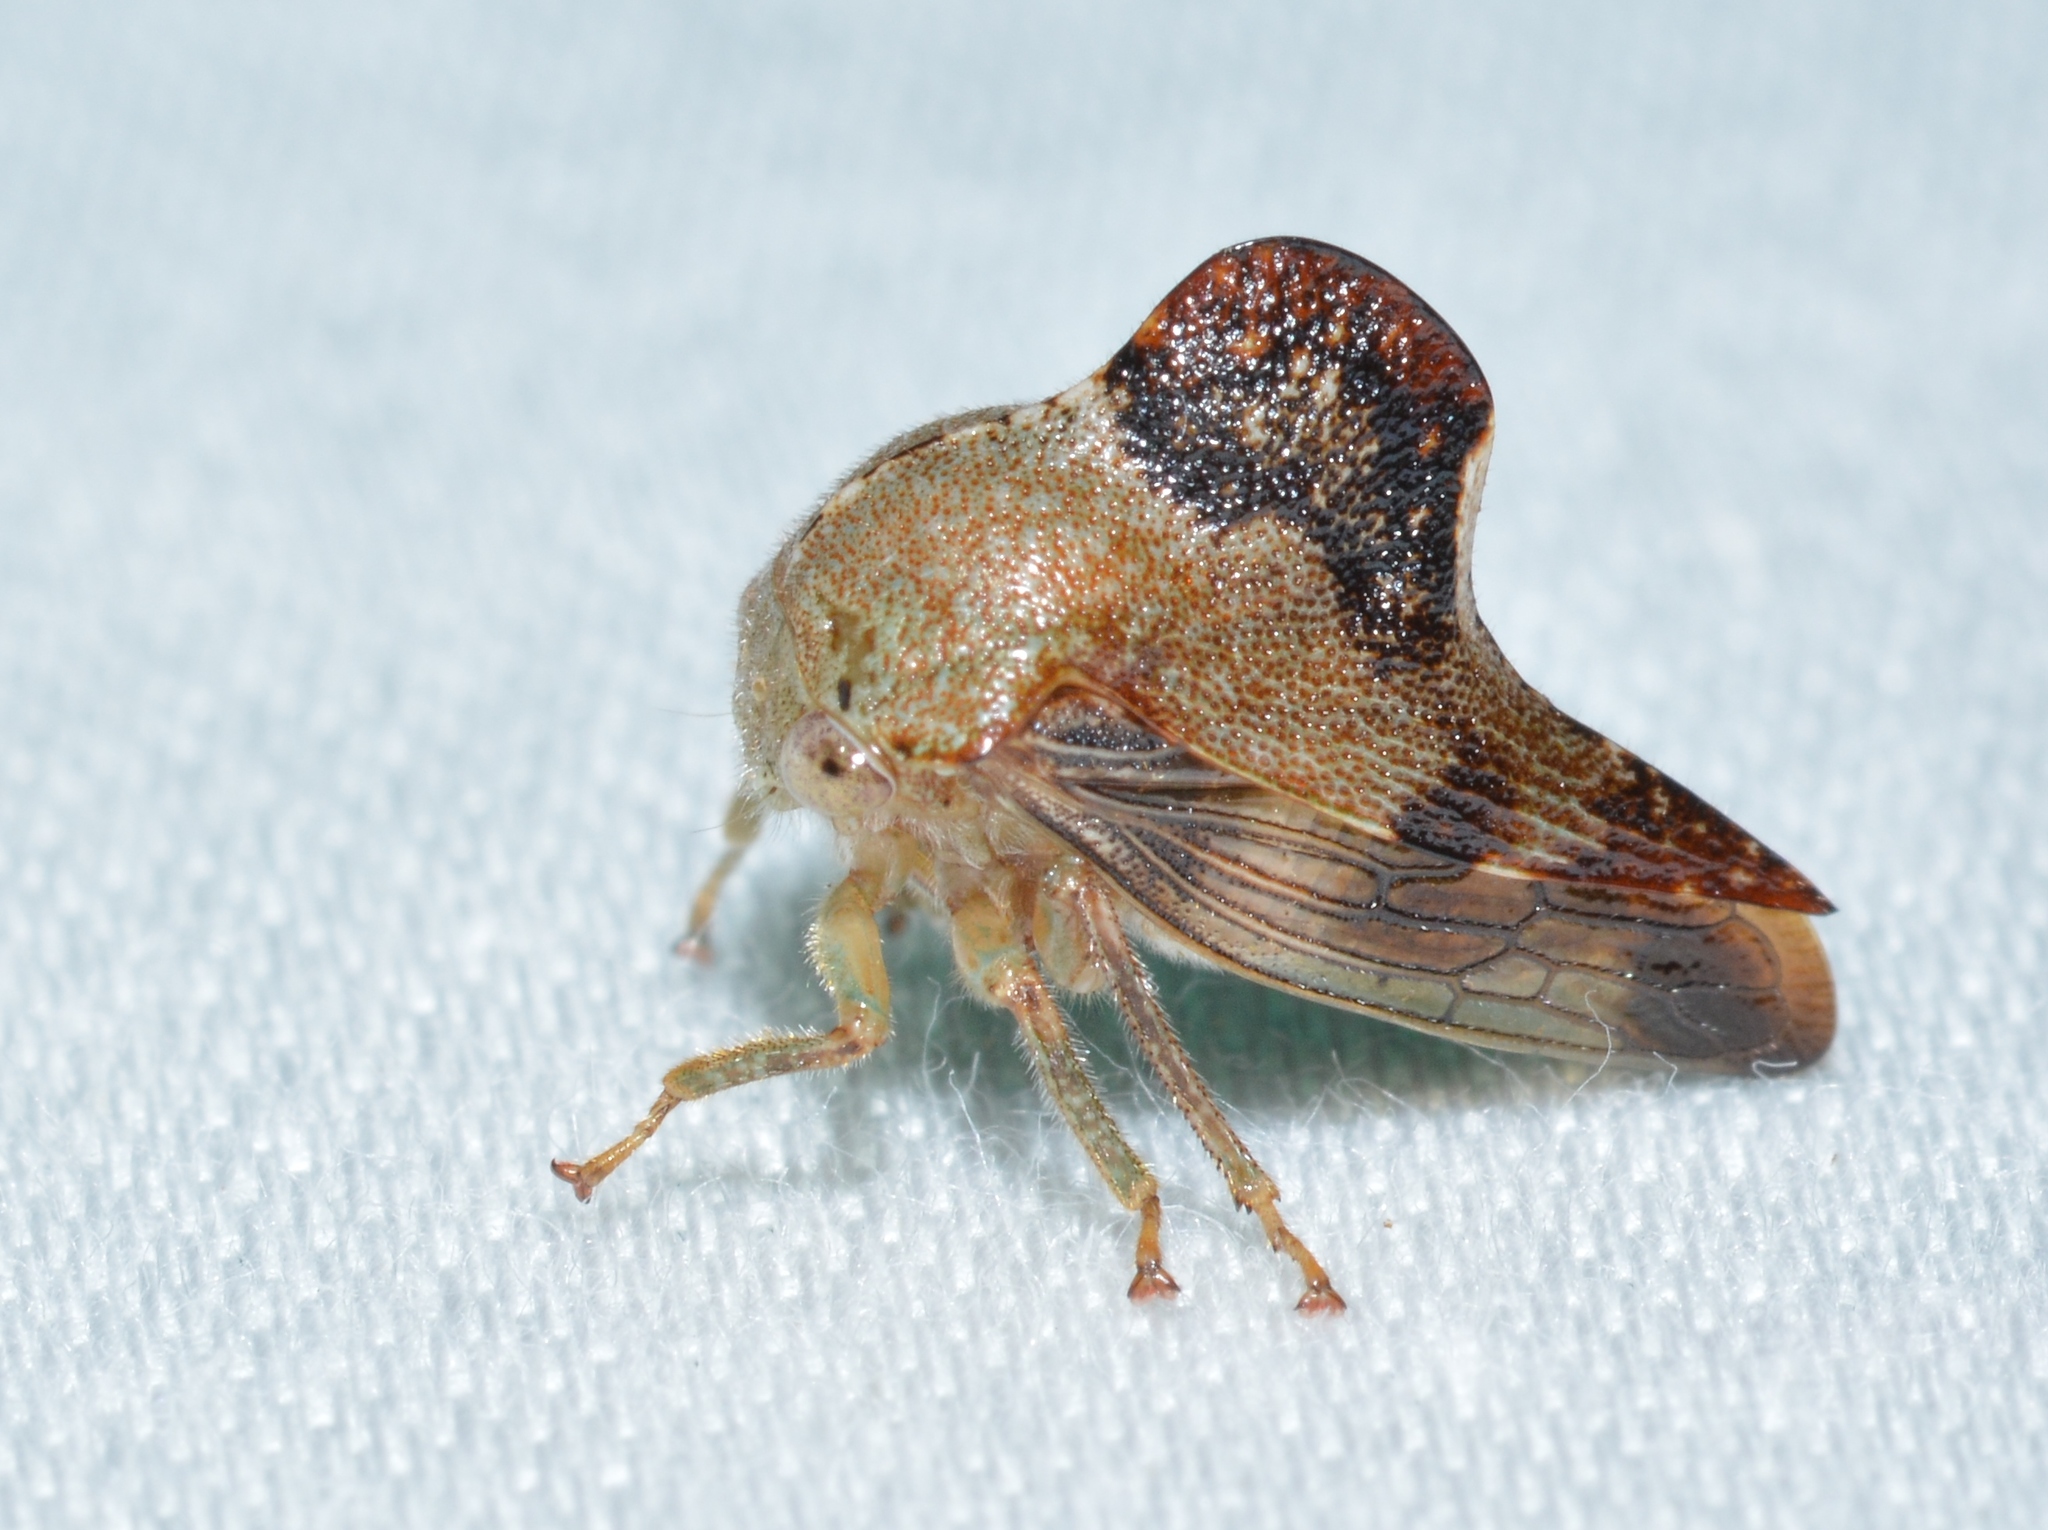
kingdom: Animalia
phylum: Arthropoda
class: Insecta
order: Hemiptera
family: Membracidae
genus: Telamona
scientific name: Telamona decorata
